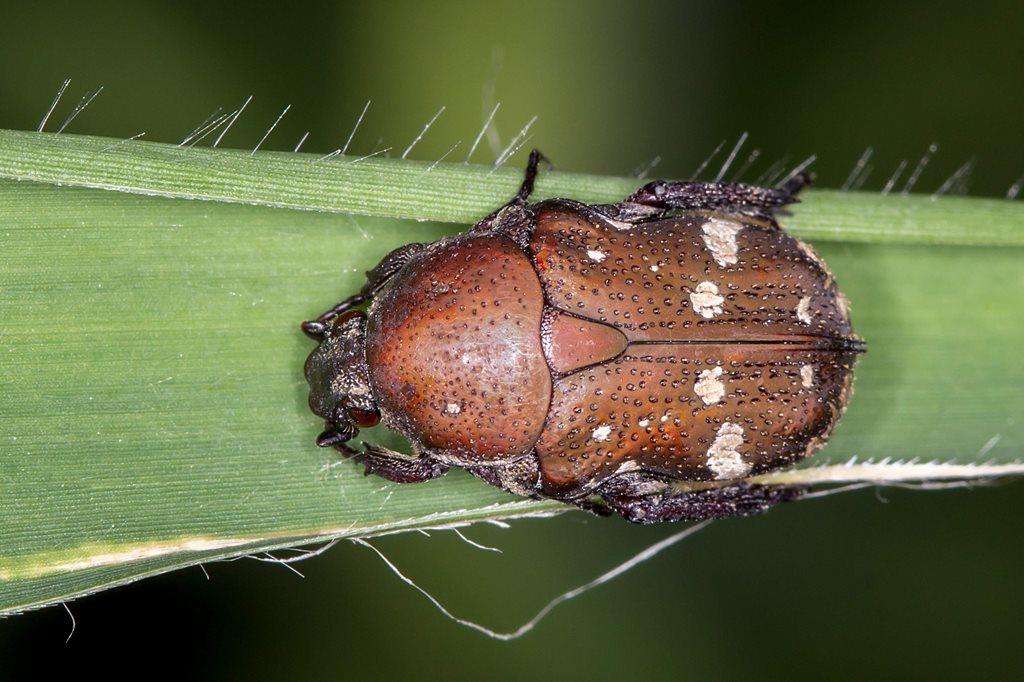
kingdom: Animalia
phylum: Arthropoda
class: Insecta
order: Coleoptera
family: Scarabaeidae
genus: Glycyphana
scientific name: Glycyphana stolata
